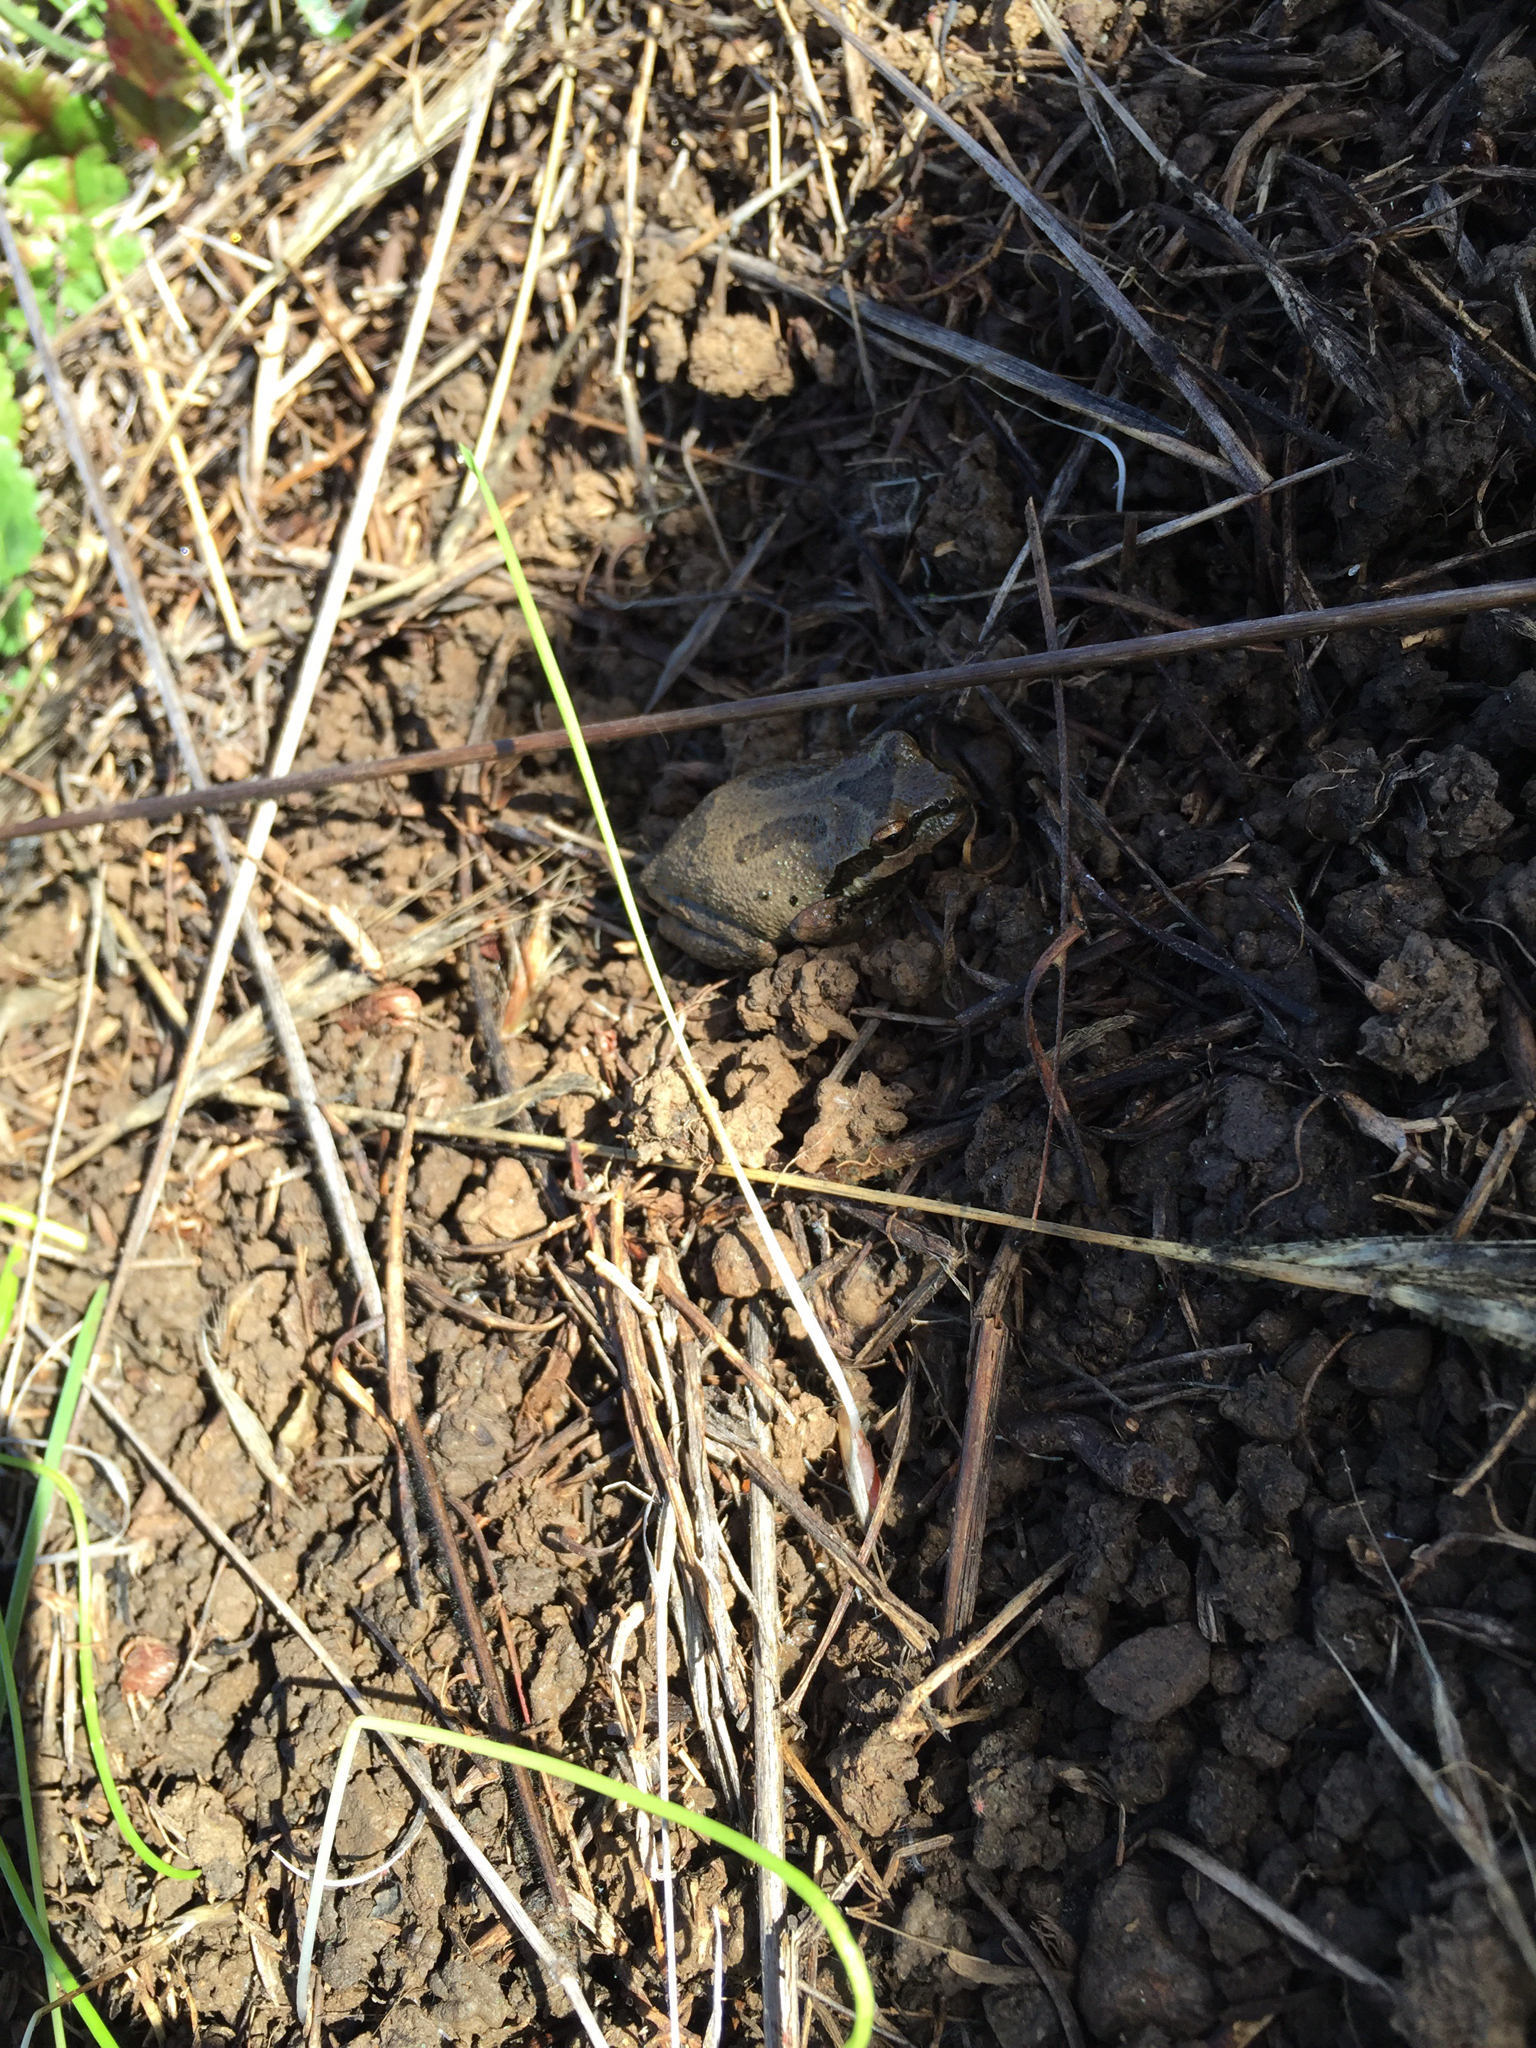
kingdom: Animalia
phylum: Chordata
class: Amphibia
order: Anura
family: Hylidae
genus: Pseudacris
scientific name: Pseudacris regilla
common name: Pacific chorus frog
